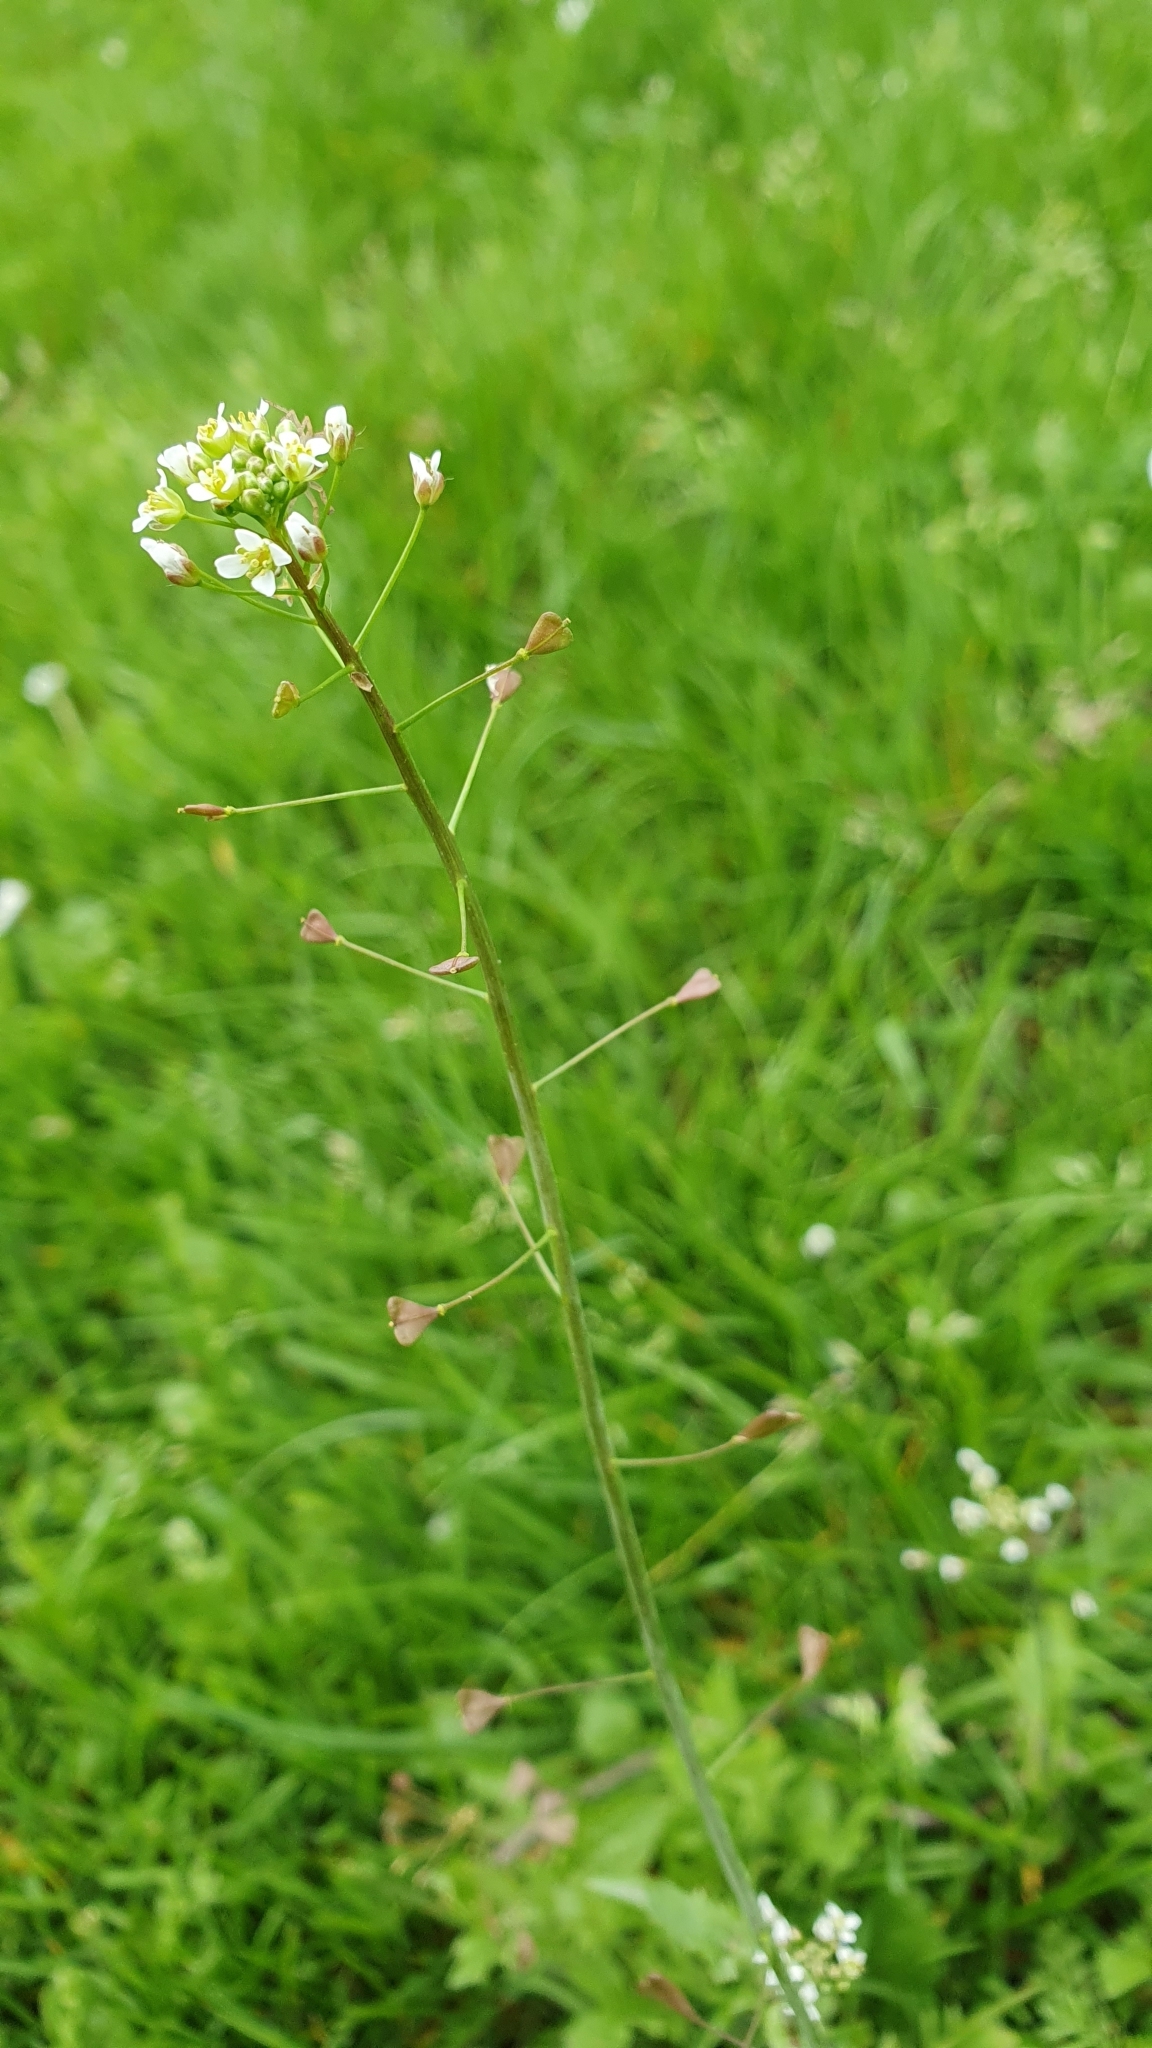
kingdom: Plantae
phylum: Tracheophyta
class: Magnoliopsida
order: Brassicales
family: Brassicaceae
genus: Capsella
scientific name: Capsella bursa-pastoris
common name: Shepherd's purse
